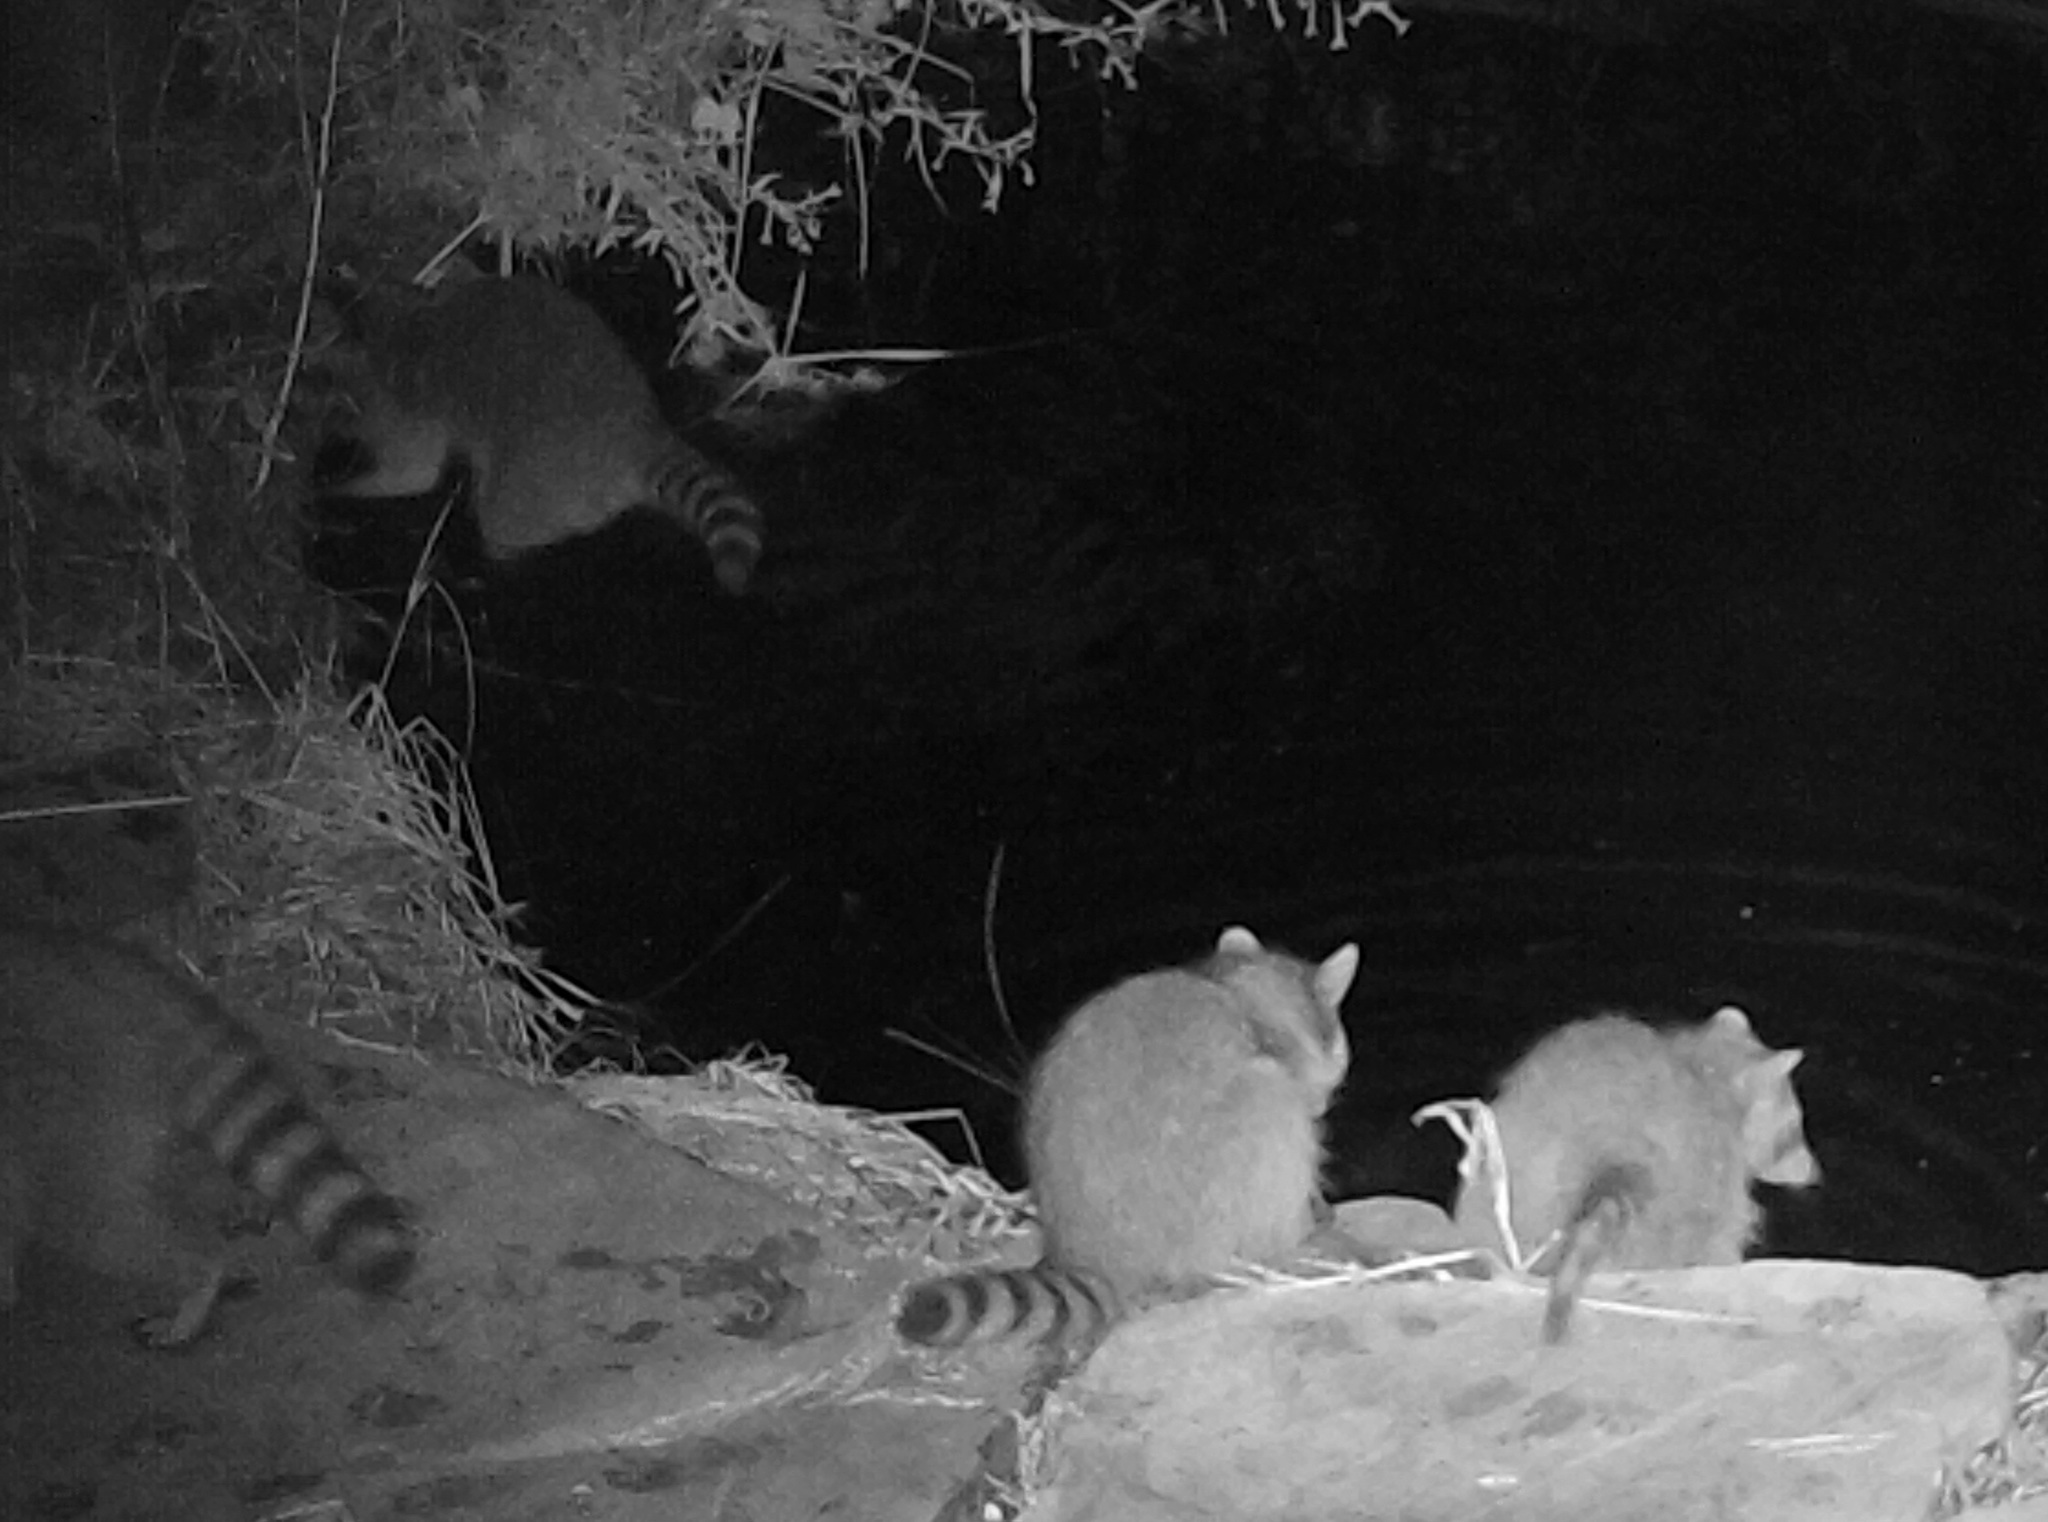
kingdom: Animalia
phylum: Chordata
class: Mammalia
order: Carnivora
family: Procyonidae
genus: Procyon
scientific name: Procyon lotor
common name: Raccoon
